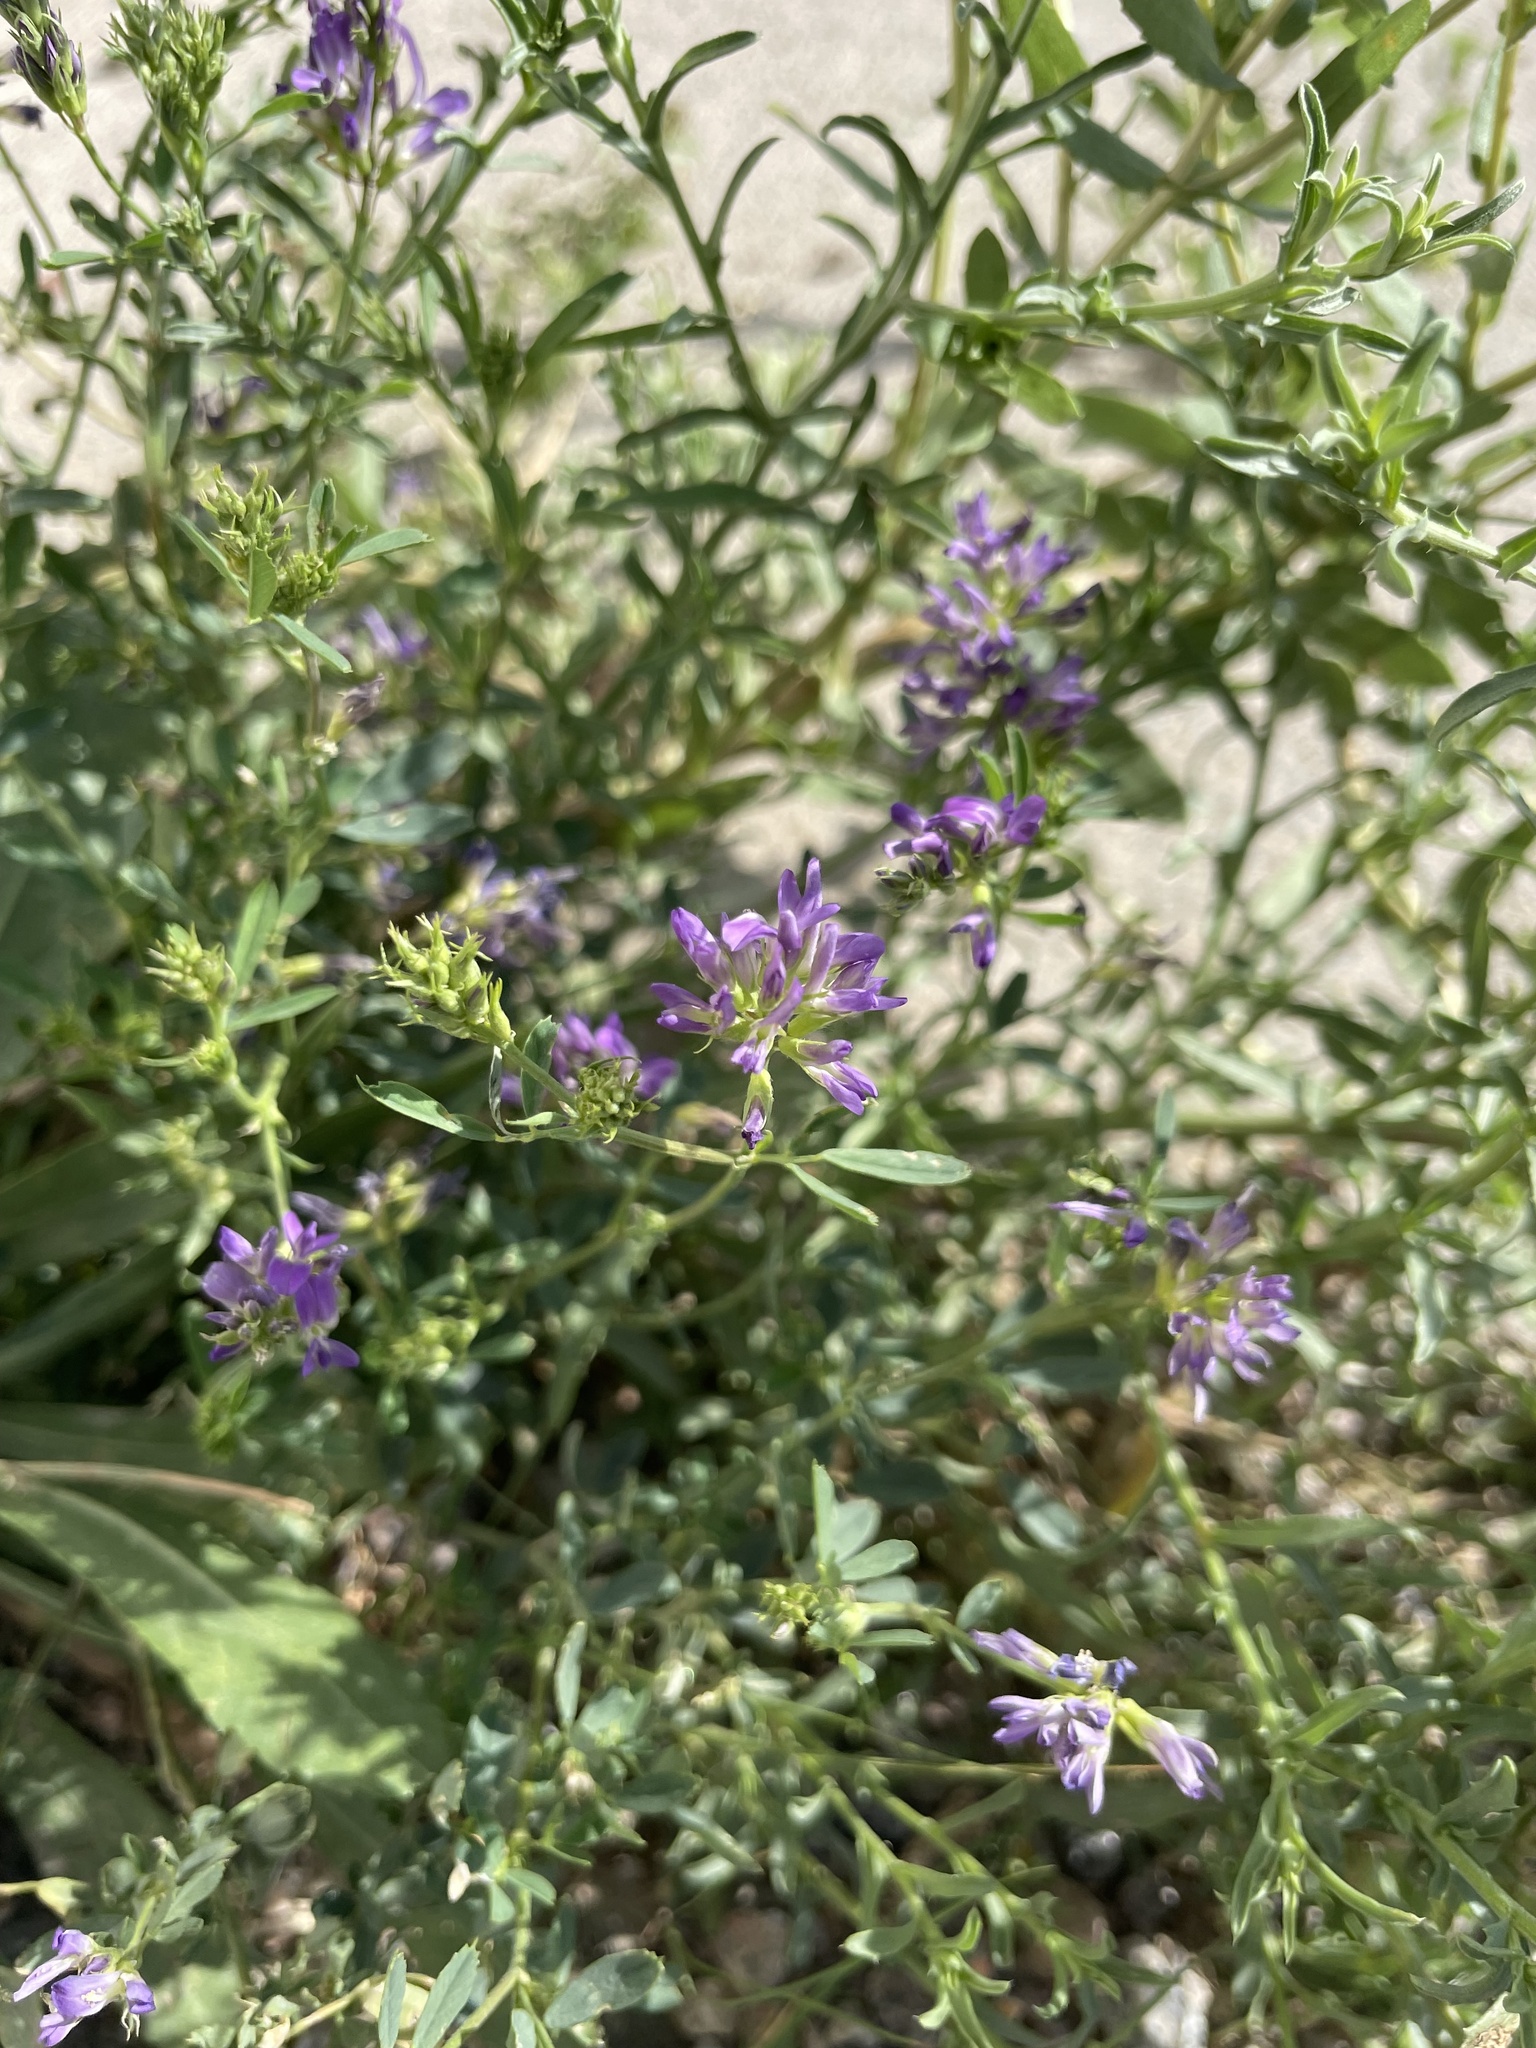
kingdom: Plantae
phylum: Tracheophyta
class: Magnoliopsida
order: Fabales
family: Fabaceae
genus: Medicago
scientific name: Medicago sativa
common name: Alfalfa
